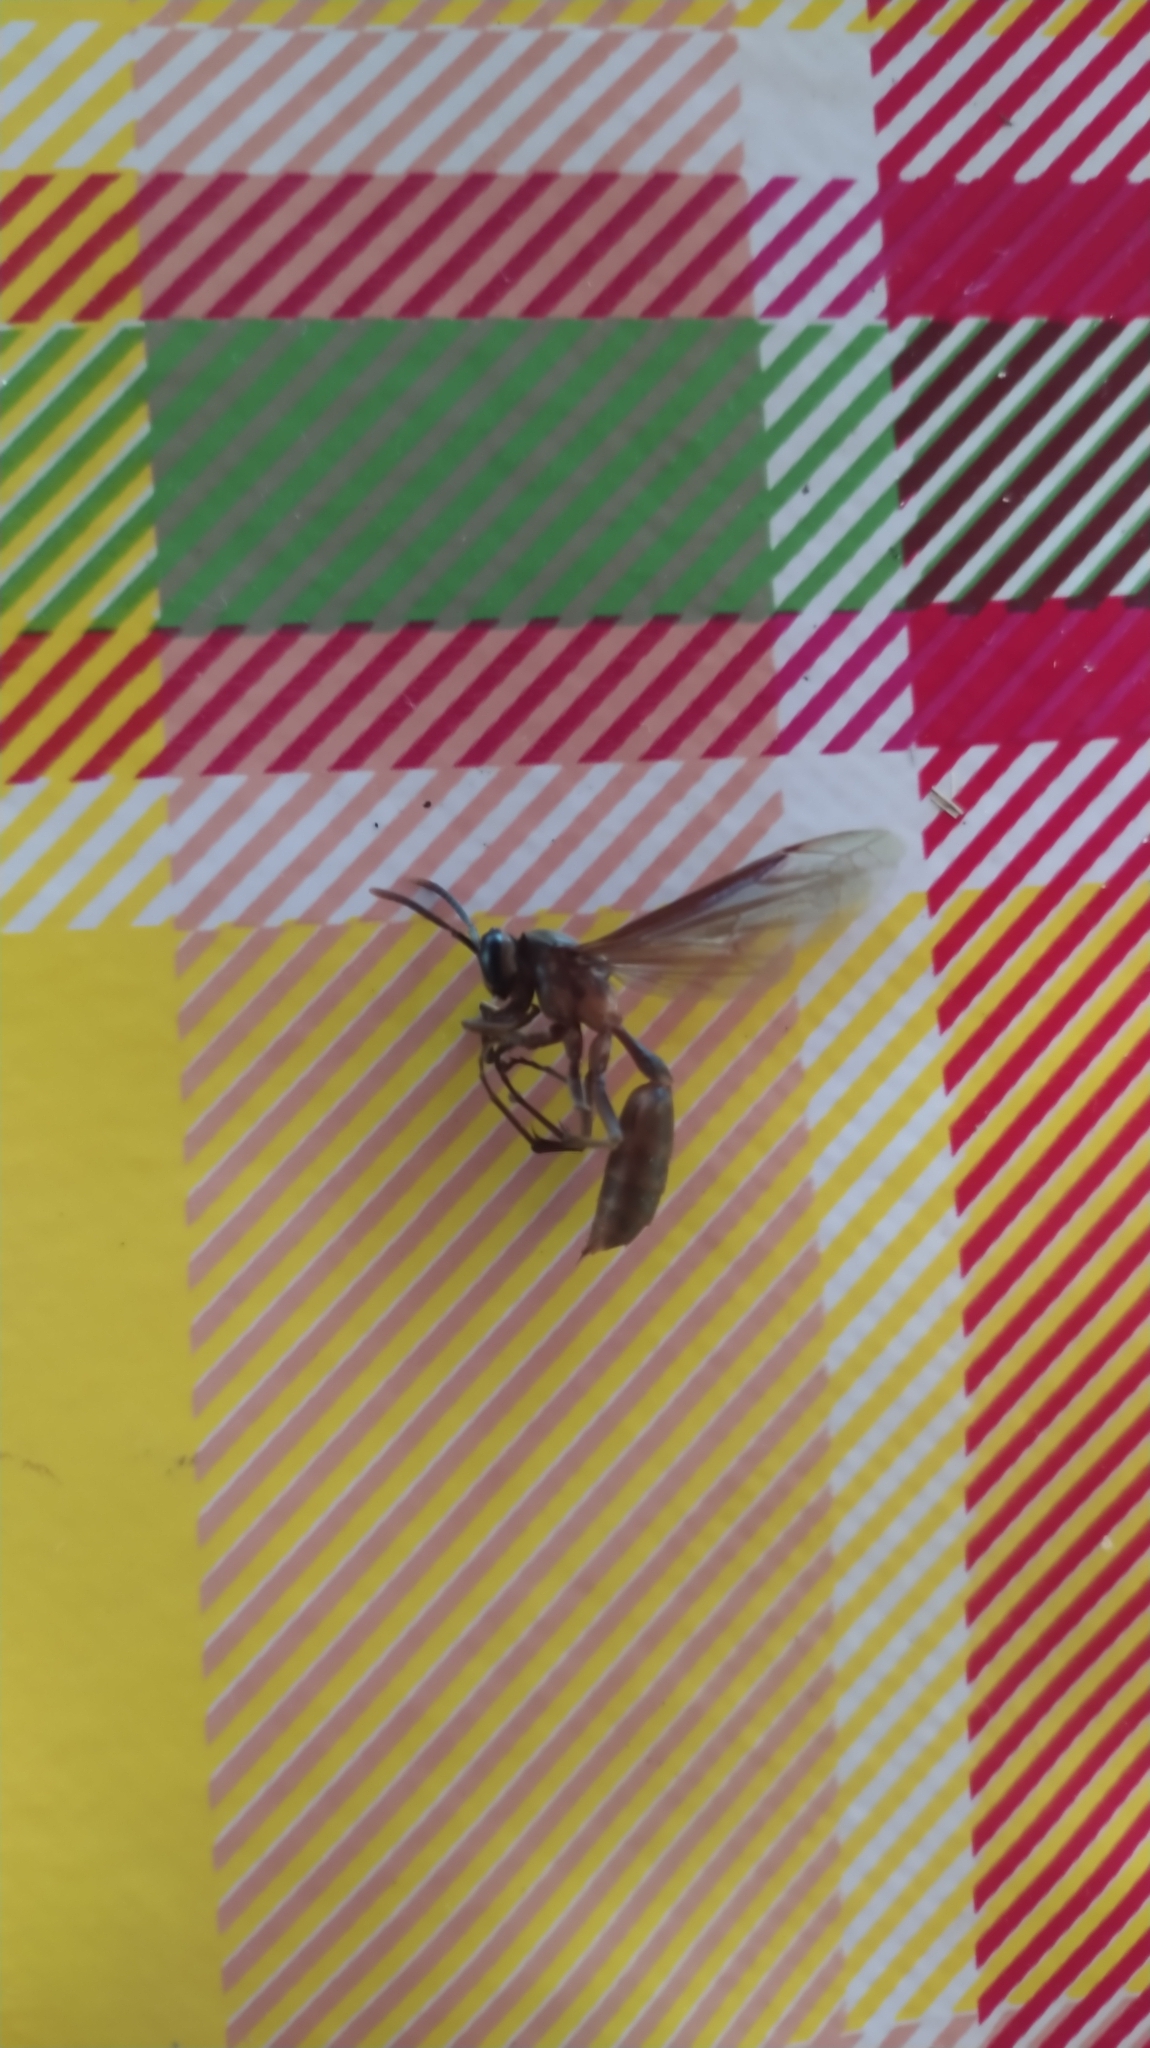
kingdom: Animalia
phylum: Arthropoda
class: Insecta
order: Hymenoptera
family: Vespidae
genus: Apoica
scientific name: Apoica
